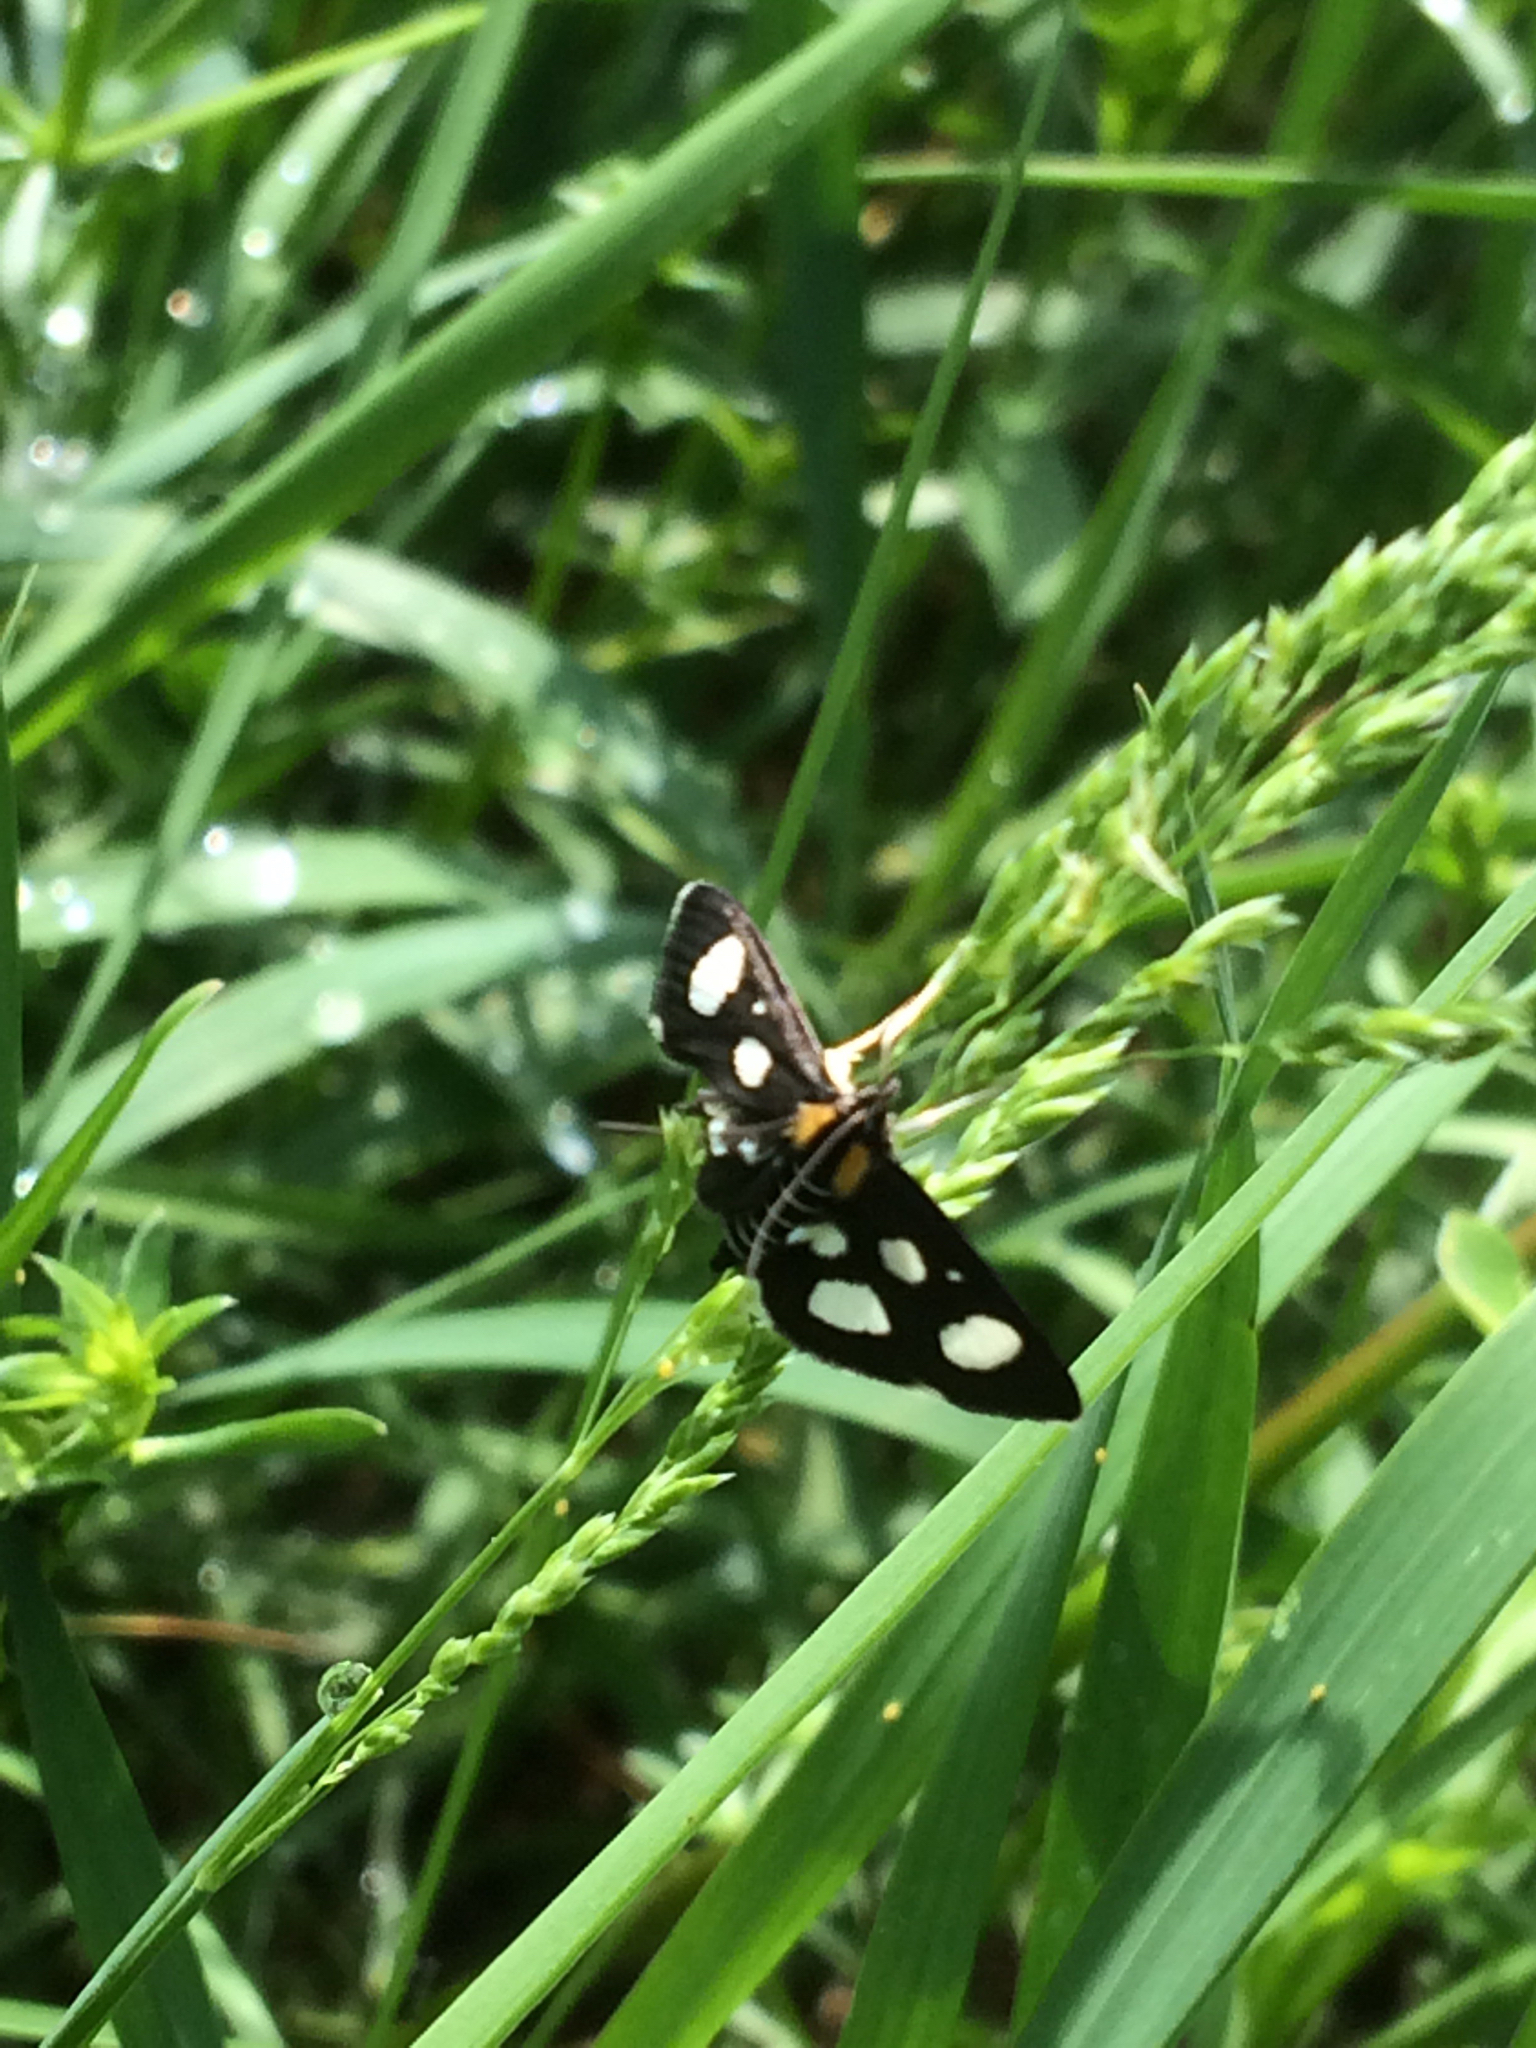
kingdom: Animalia
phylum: Arthropoda
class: Insecta
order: Lepidoptera
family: Crambidae
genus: Anania
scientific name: Anania funebris
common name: White-spotted sable moth
